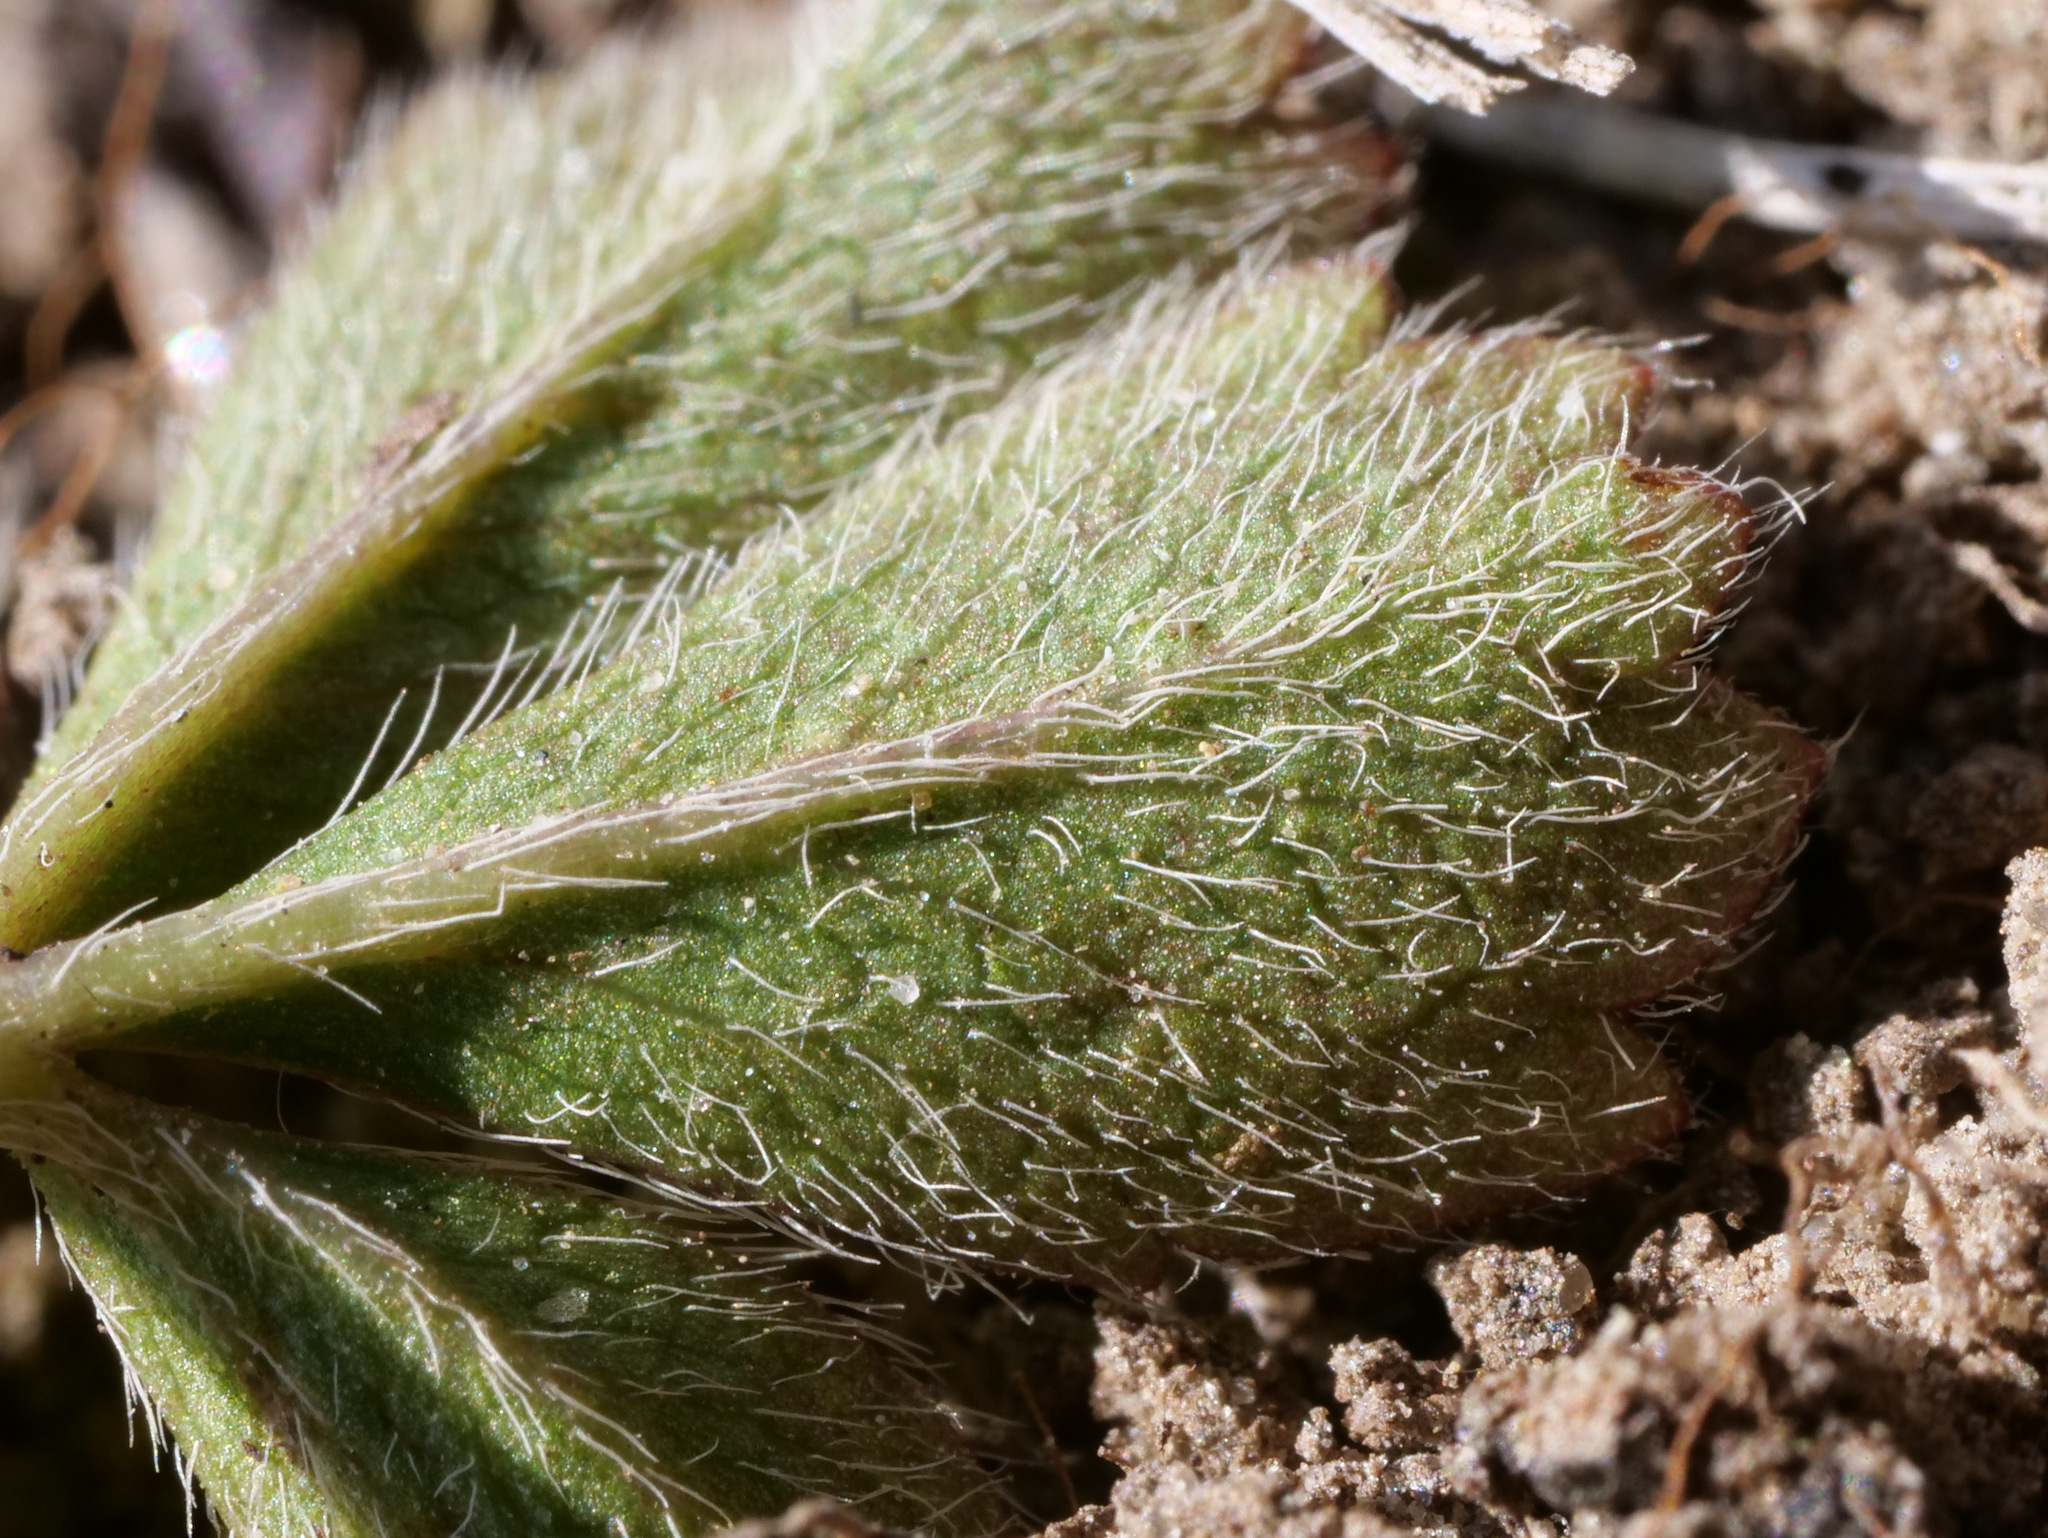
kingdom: Plantae
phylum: Tracheophyta
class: Magnoliopsida
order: Rosales
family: Rosaceae
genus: Potentilla
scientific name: Potentilla verna
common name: Spring cinquefoil
